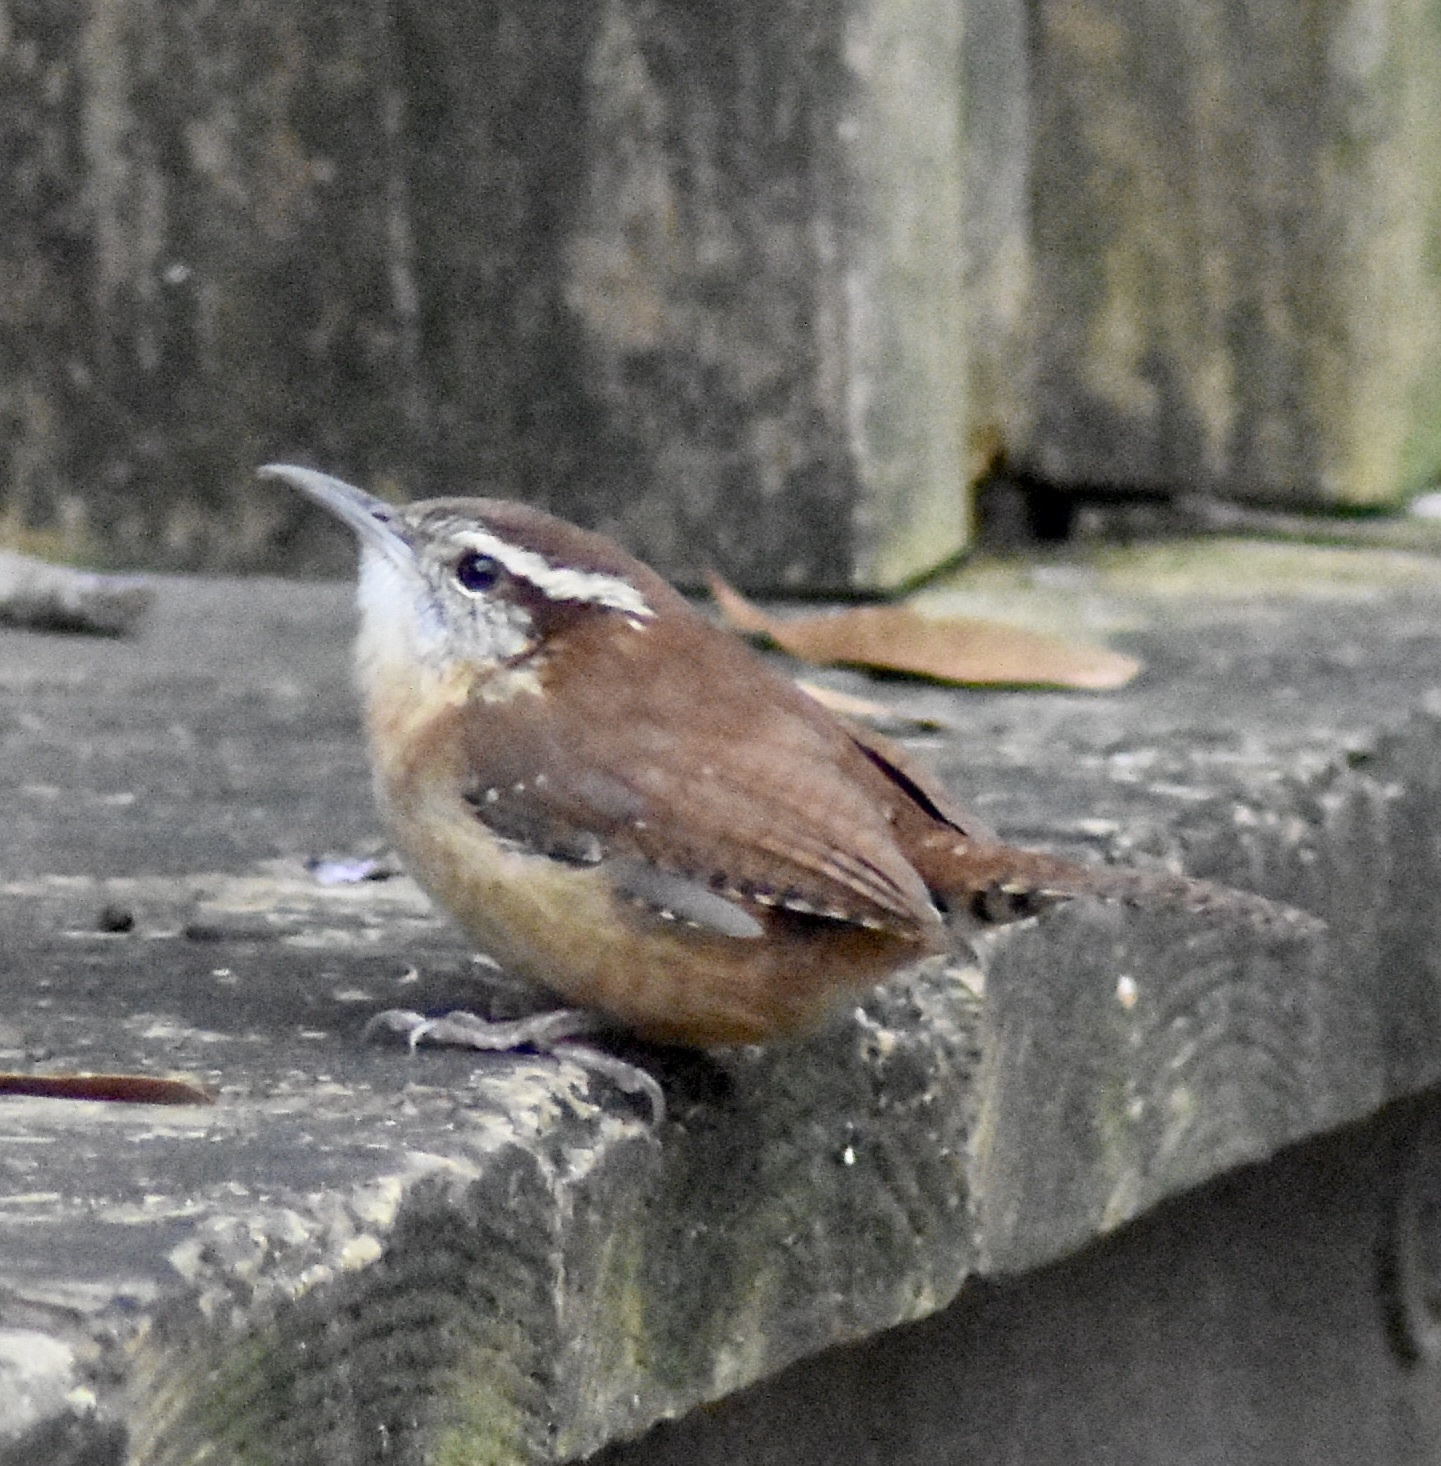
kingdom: Animalia
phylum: Chordata
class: Aves
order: Passeriformes
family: Troglodytidae
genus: Thryothorus
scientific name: Thryothorus ludovicianus
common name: Carolina wren
